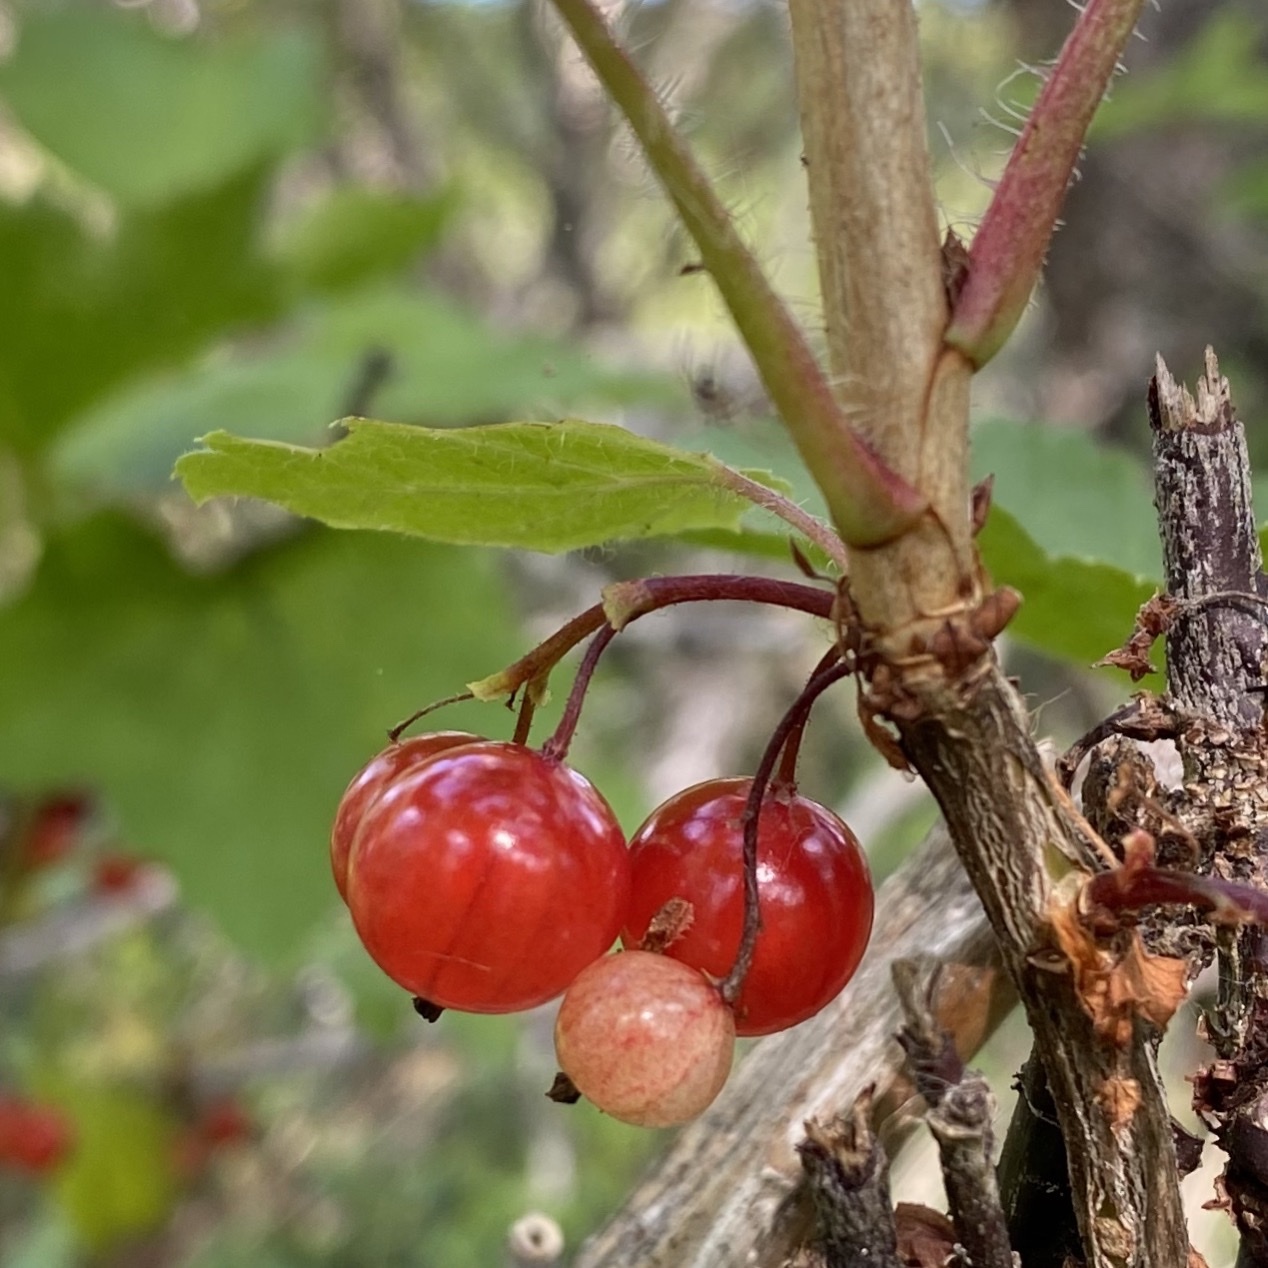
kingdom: Plantae
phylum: Tracheophyta
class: Magnoliopsida
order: Saxifragales
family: Grossulariaceae
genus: Ribes
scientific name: Ribes rubrum
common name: Red currant
